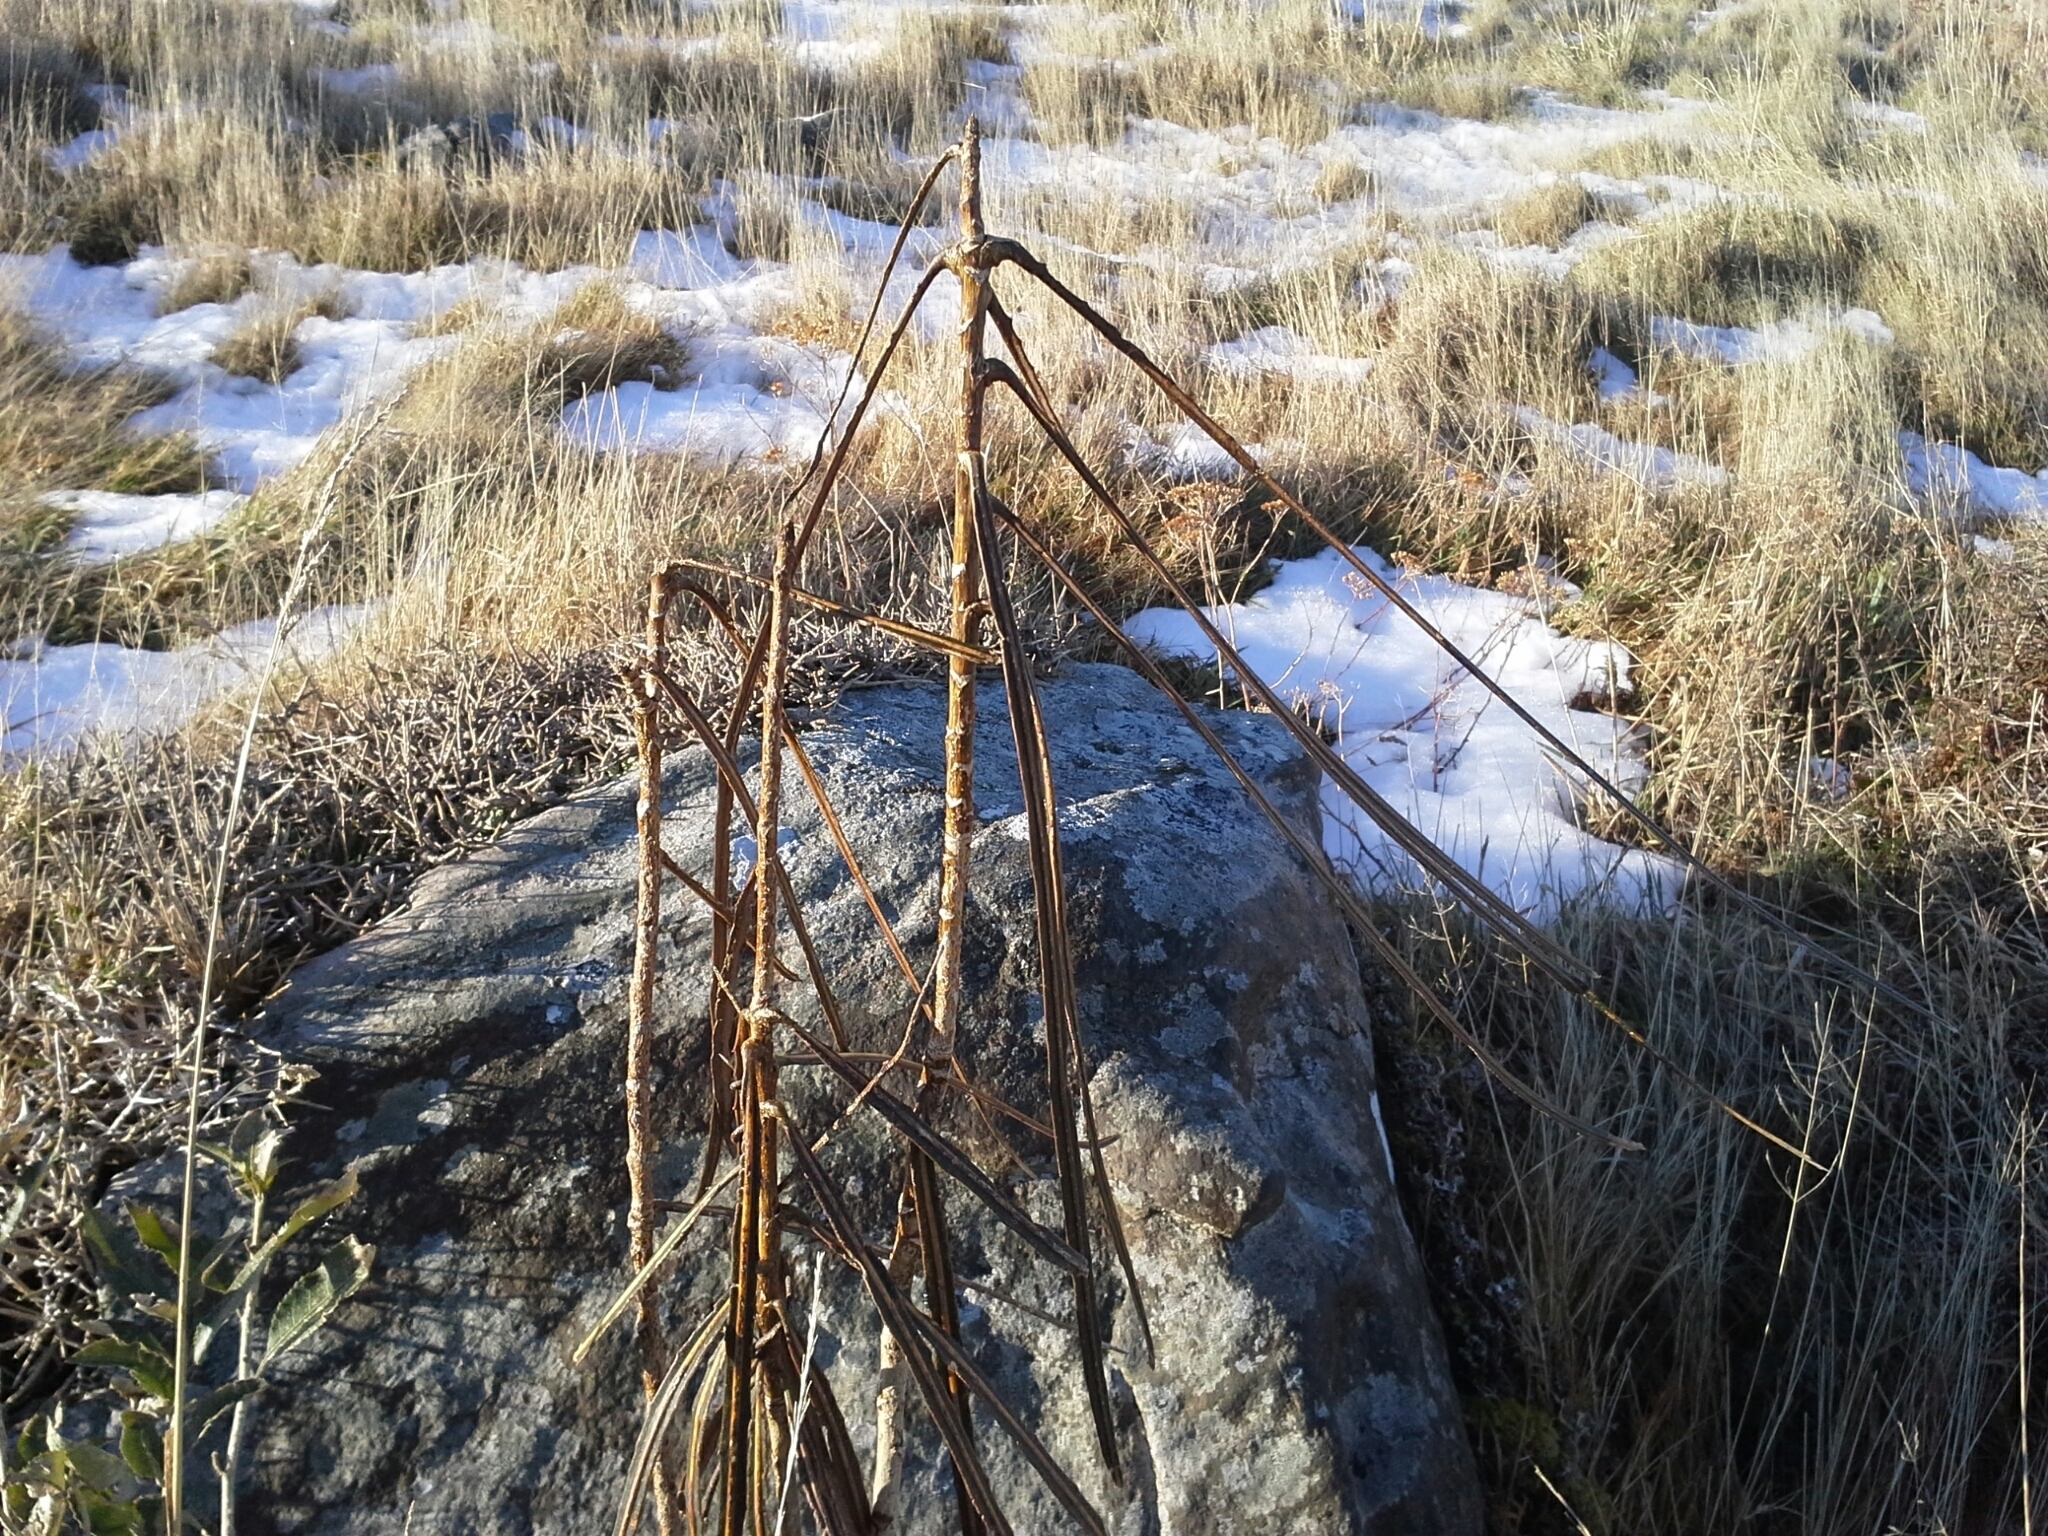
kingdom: Plantae
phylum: Tracheophyta
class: Magnoliopsida
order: Apiales
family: Araliaceae
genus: Pseudopanax
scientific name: Pseudopanax crassifolius
